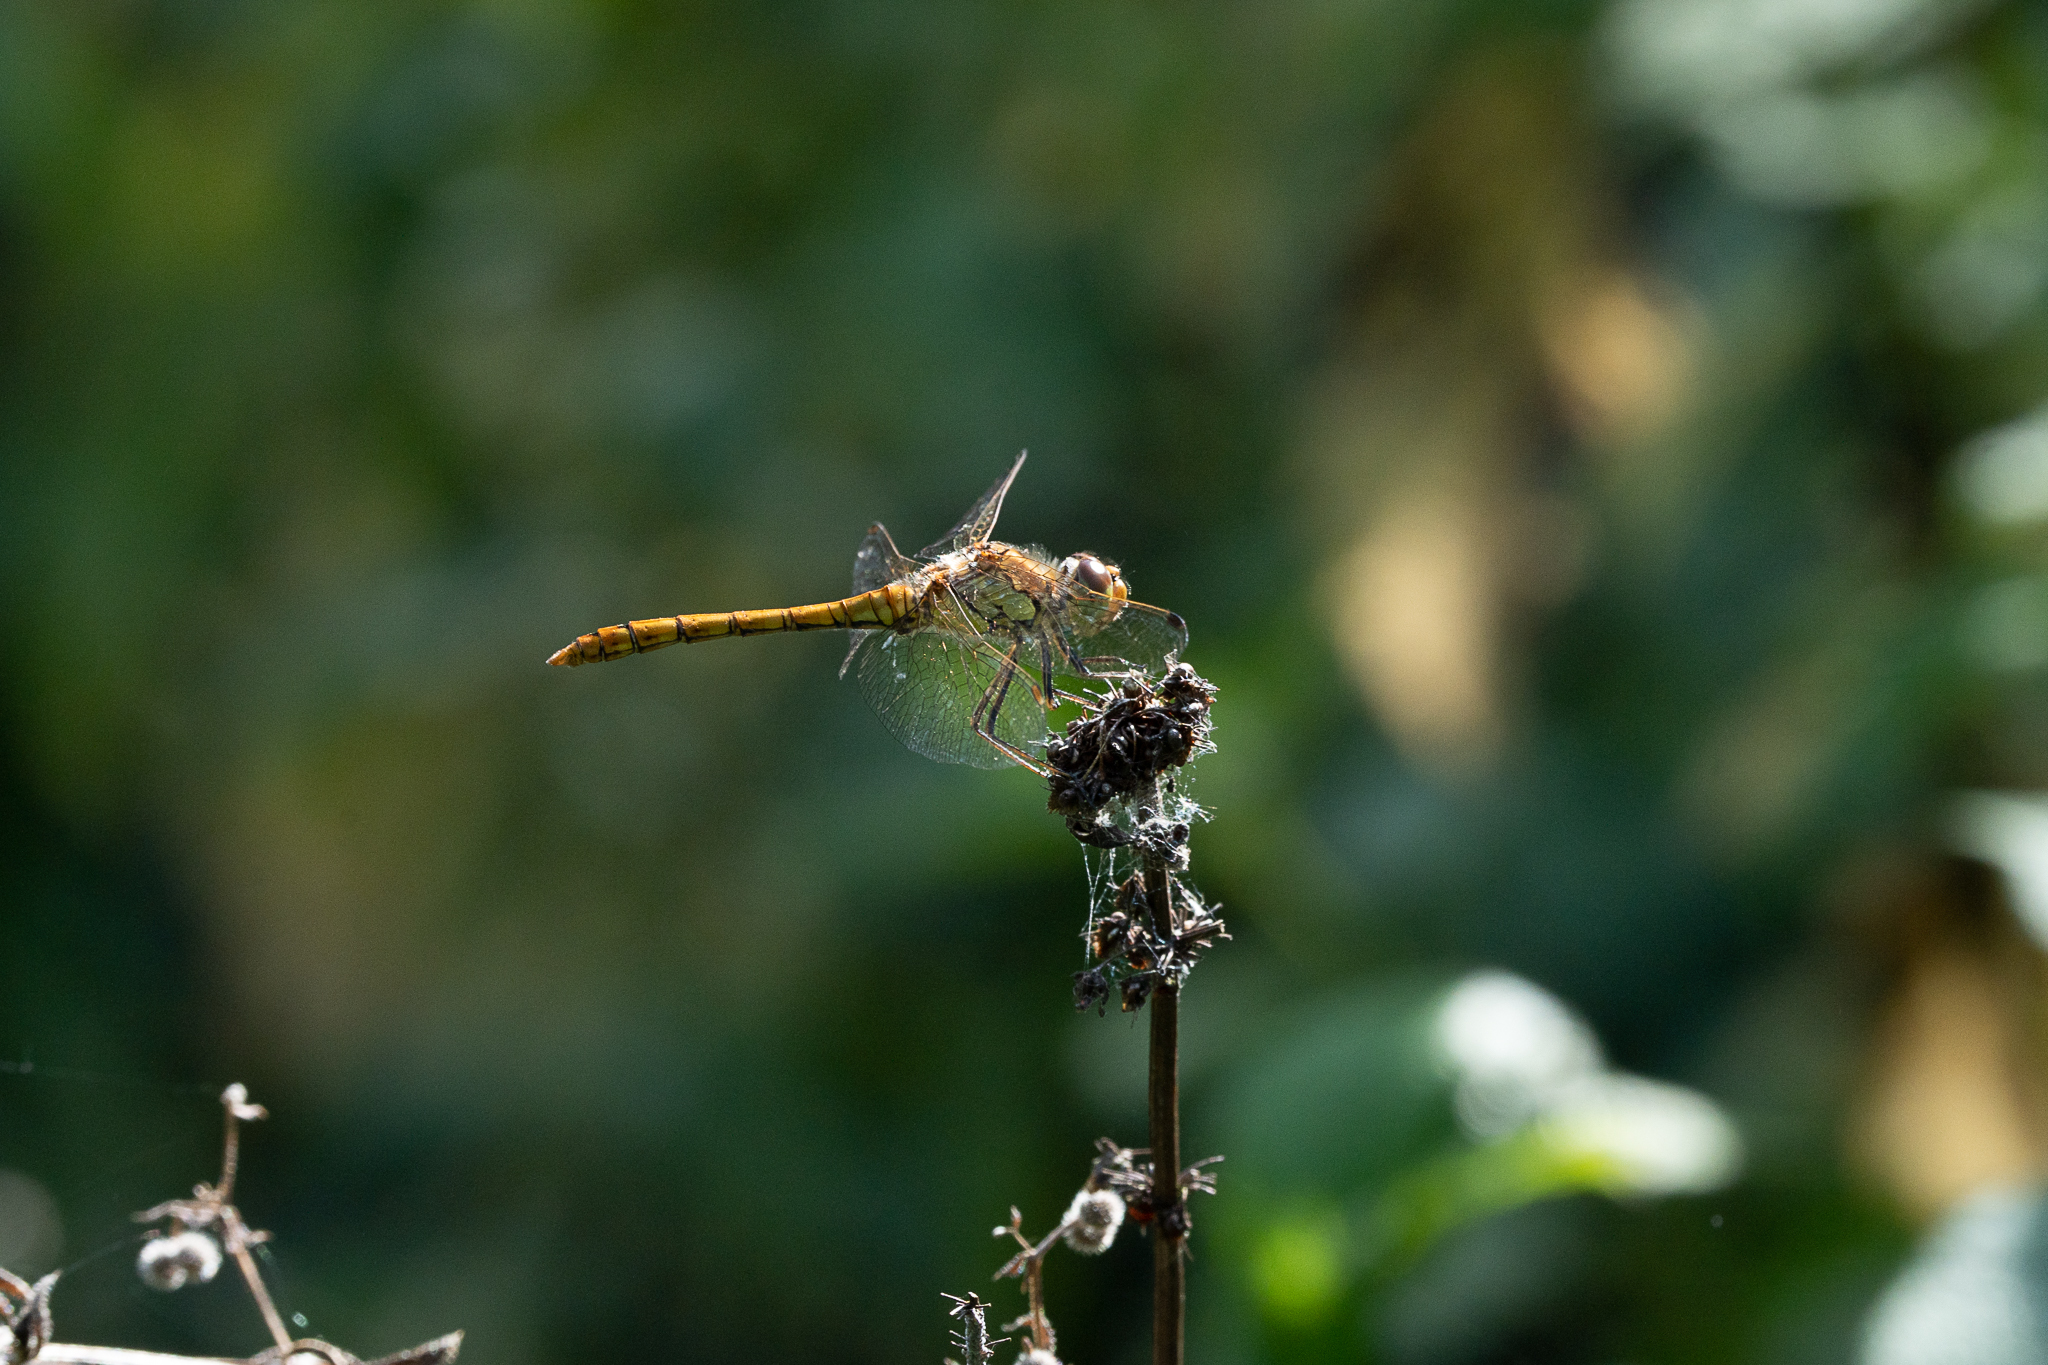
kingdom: Animalia
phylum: Arthropoda
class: Insecta
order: Odonata
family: Libellulidae
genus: Sympetrum
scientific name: Sympetrum striolatum
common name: Common darter
